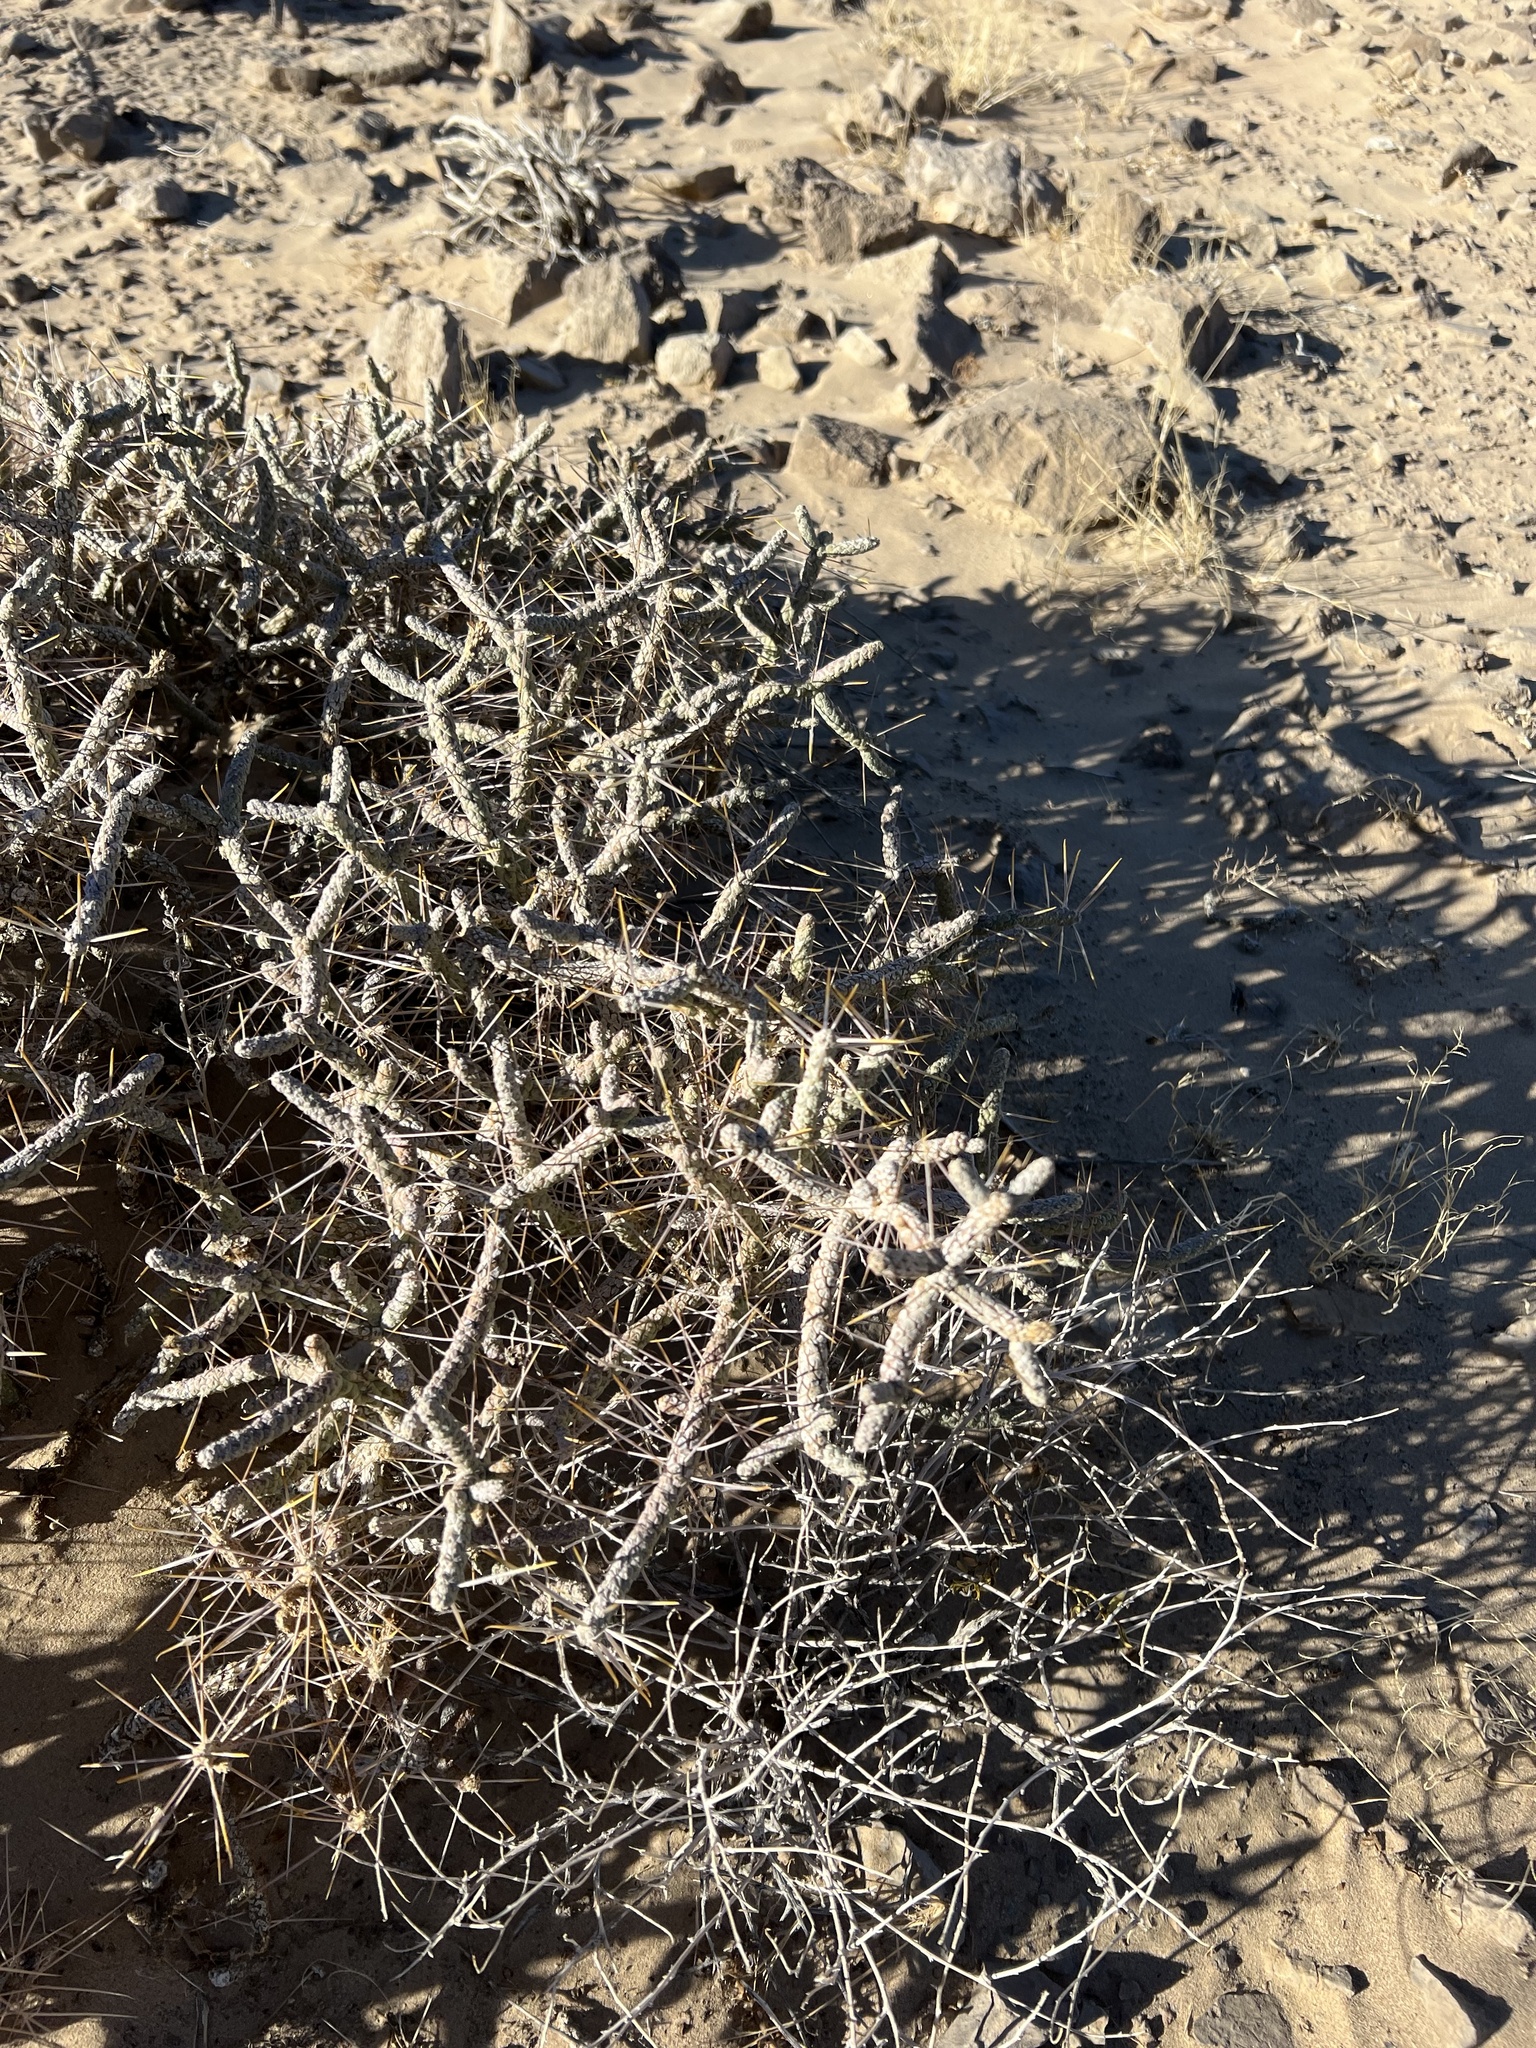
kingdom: Plantae
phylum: Tracheophyta
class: Magnoliopsida
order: Caryophyllales
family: Cactaceae
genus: Cylindropuntia
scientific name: Cylindropuntia ramosissima
